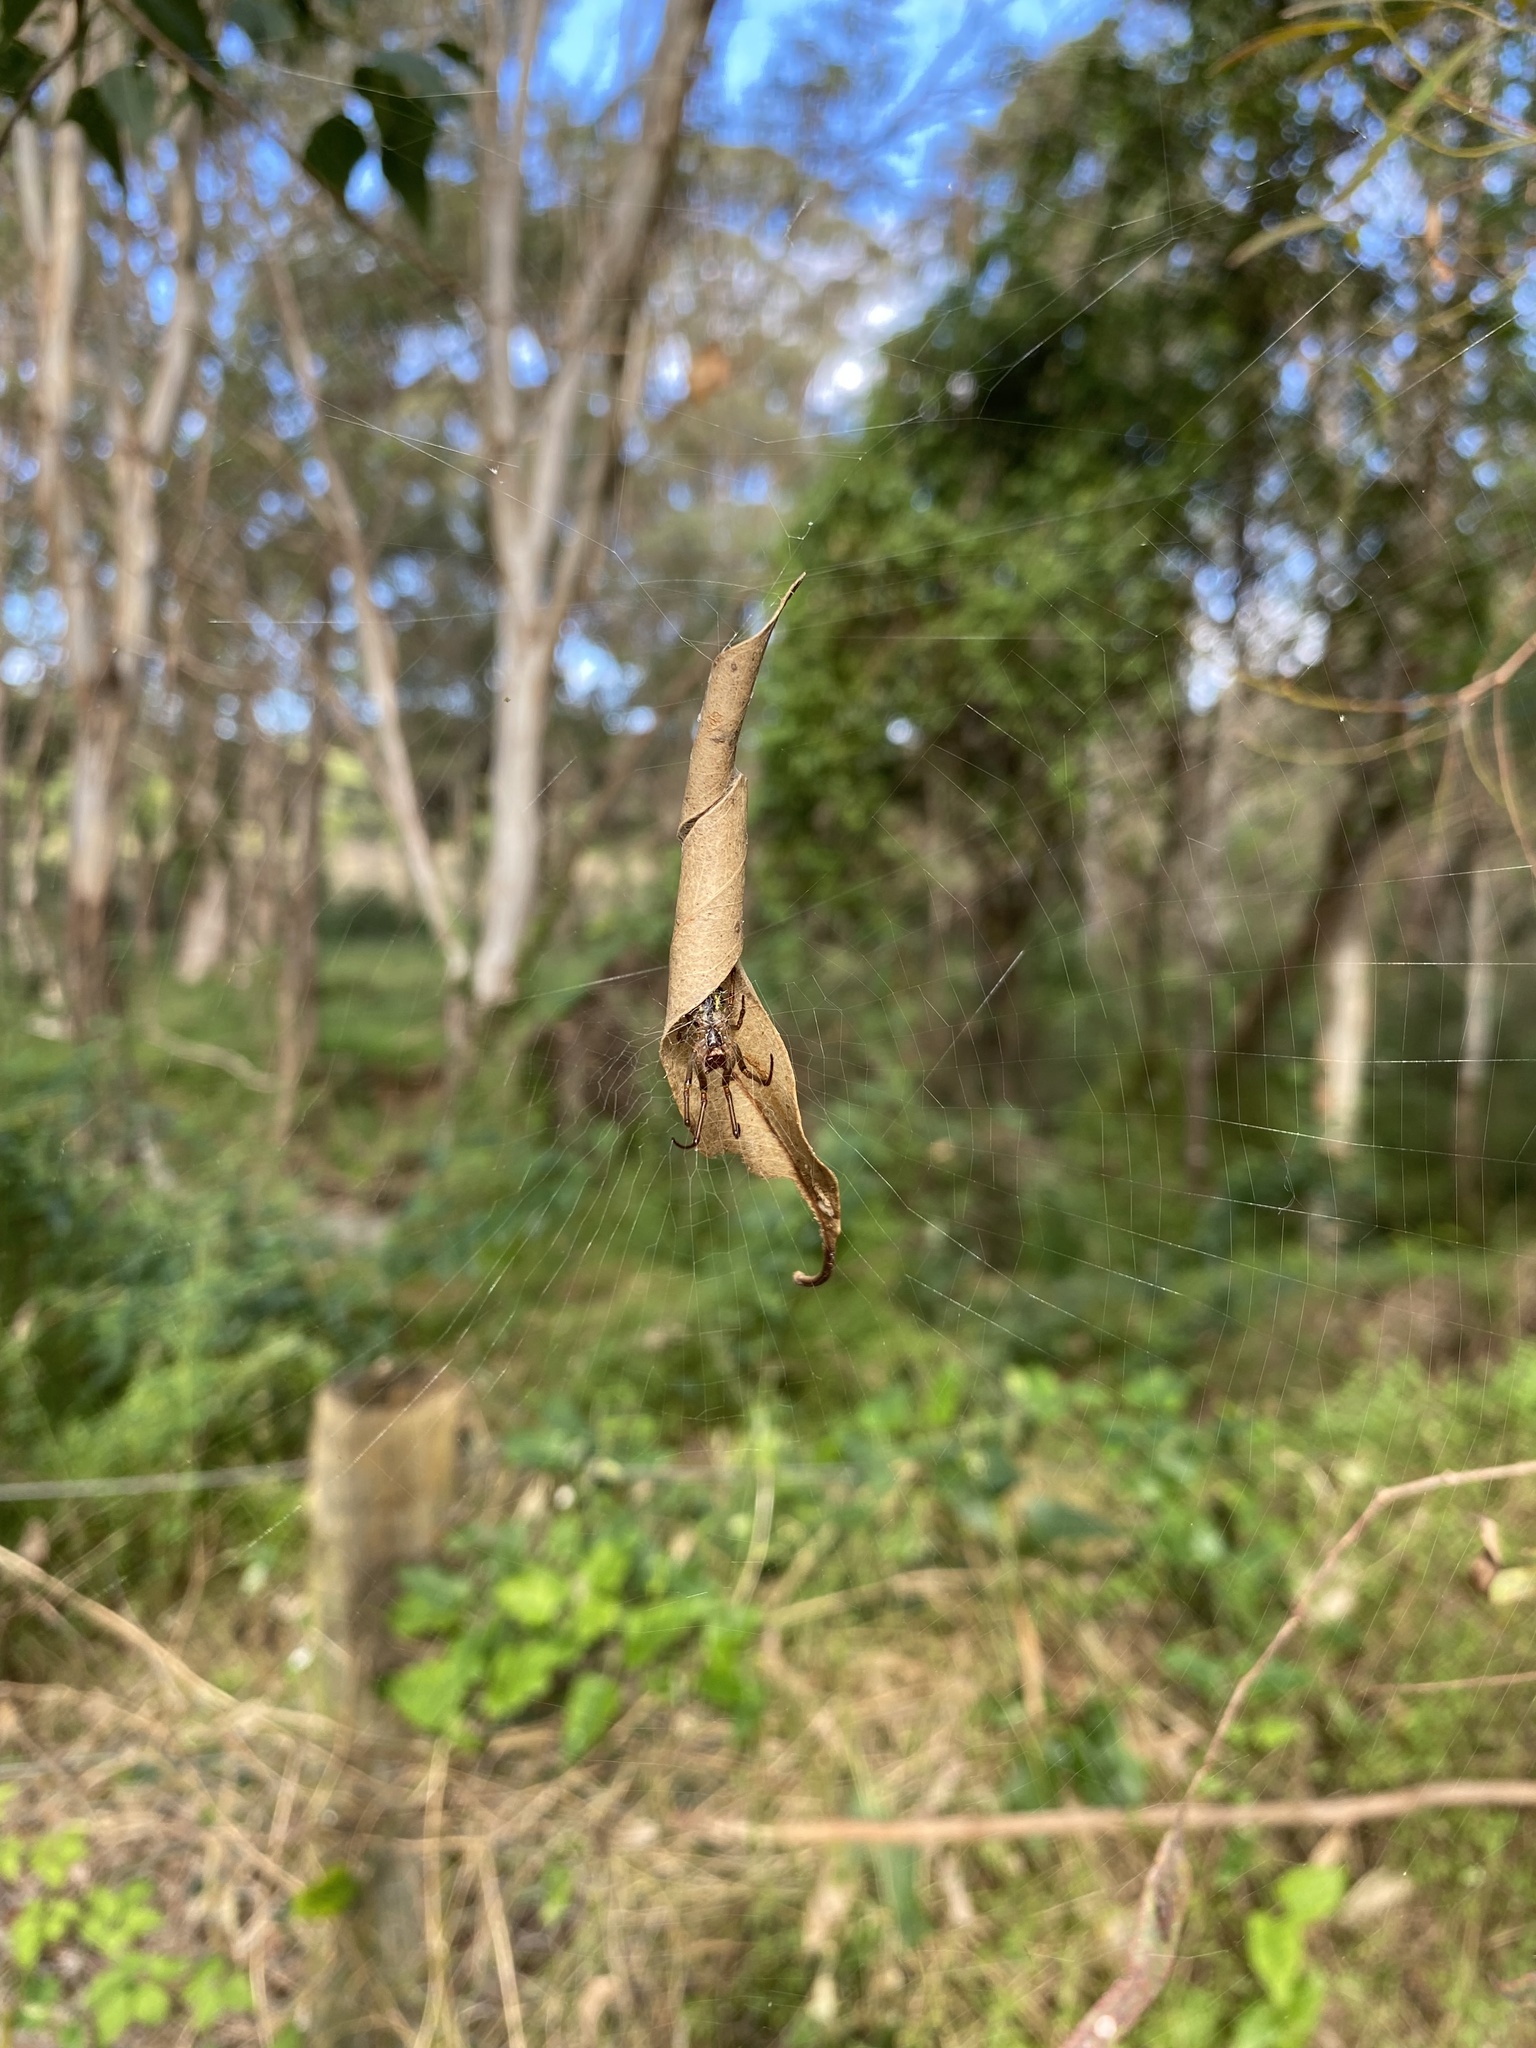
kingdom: Animalia
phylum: Arthropoda
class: Arachnida
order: Araneae
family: Araneidae
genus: Phonognatha
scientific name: Phonognatha graeffei
